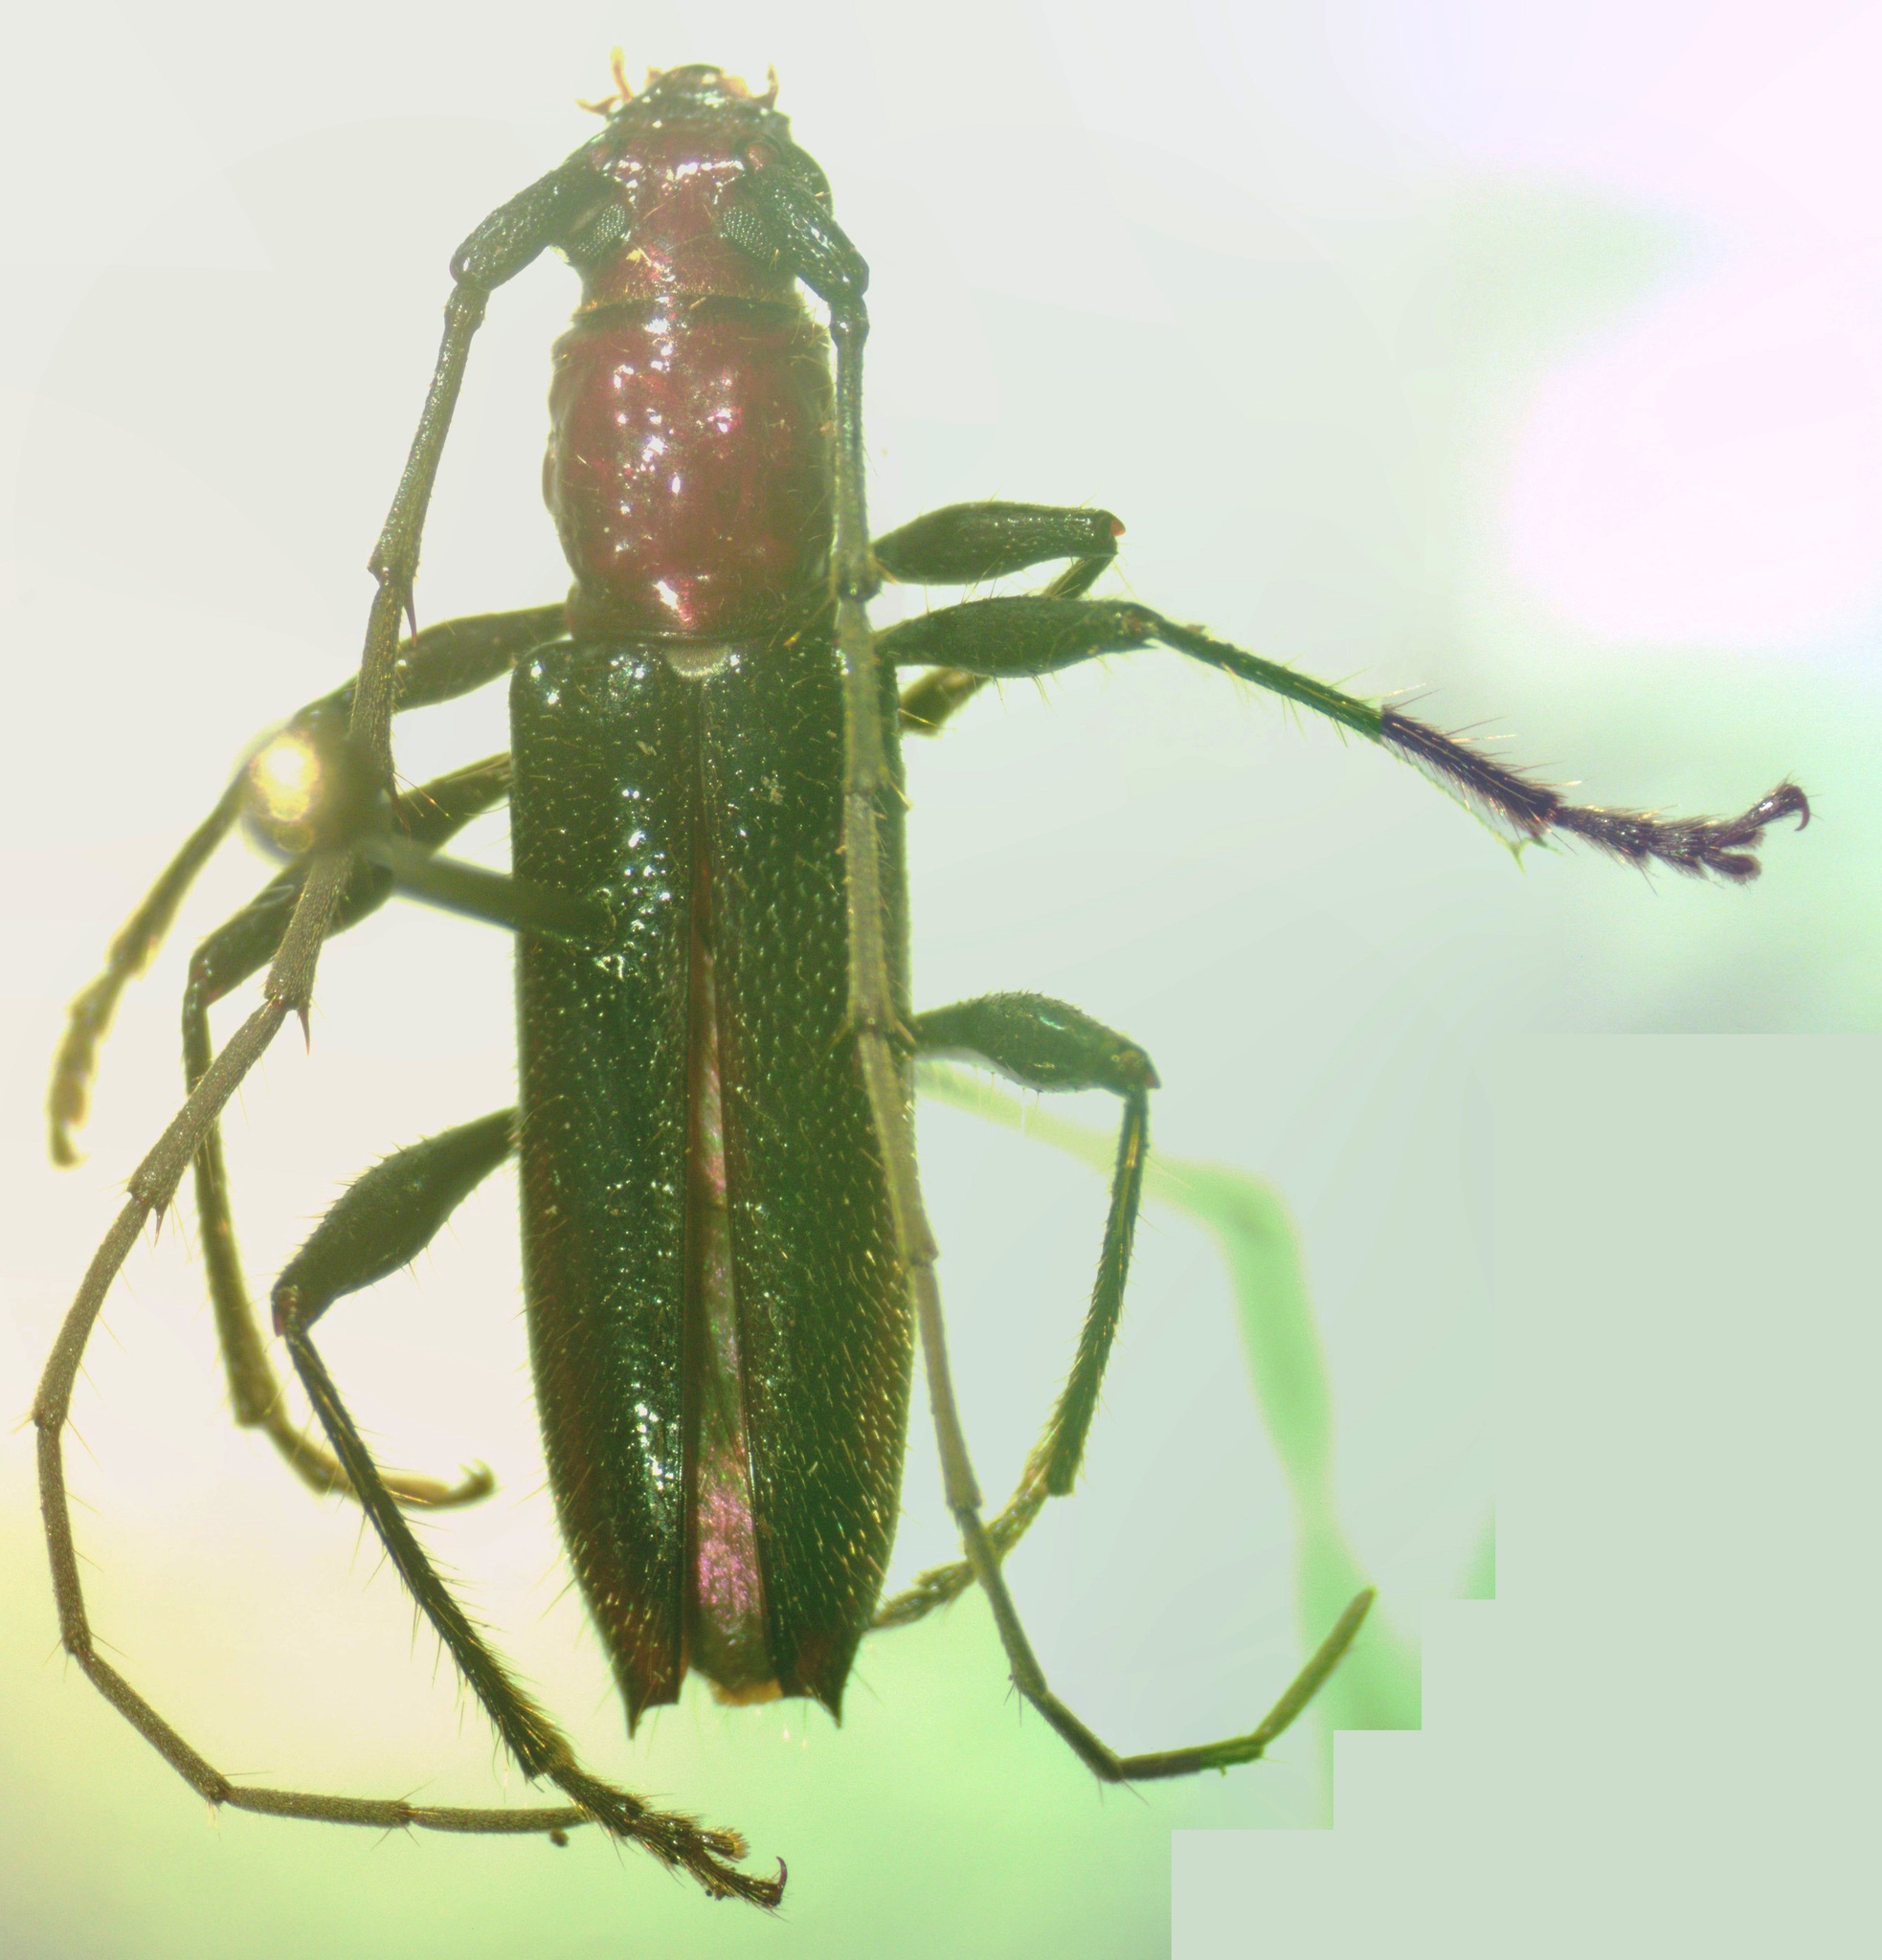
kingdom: Animalia
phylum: Arthropoda
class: Insecta
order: Coleoptera
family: Cerambycidae
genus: Nephalioides
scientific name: Nephalioides rutilus
